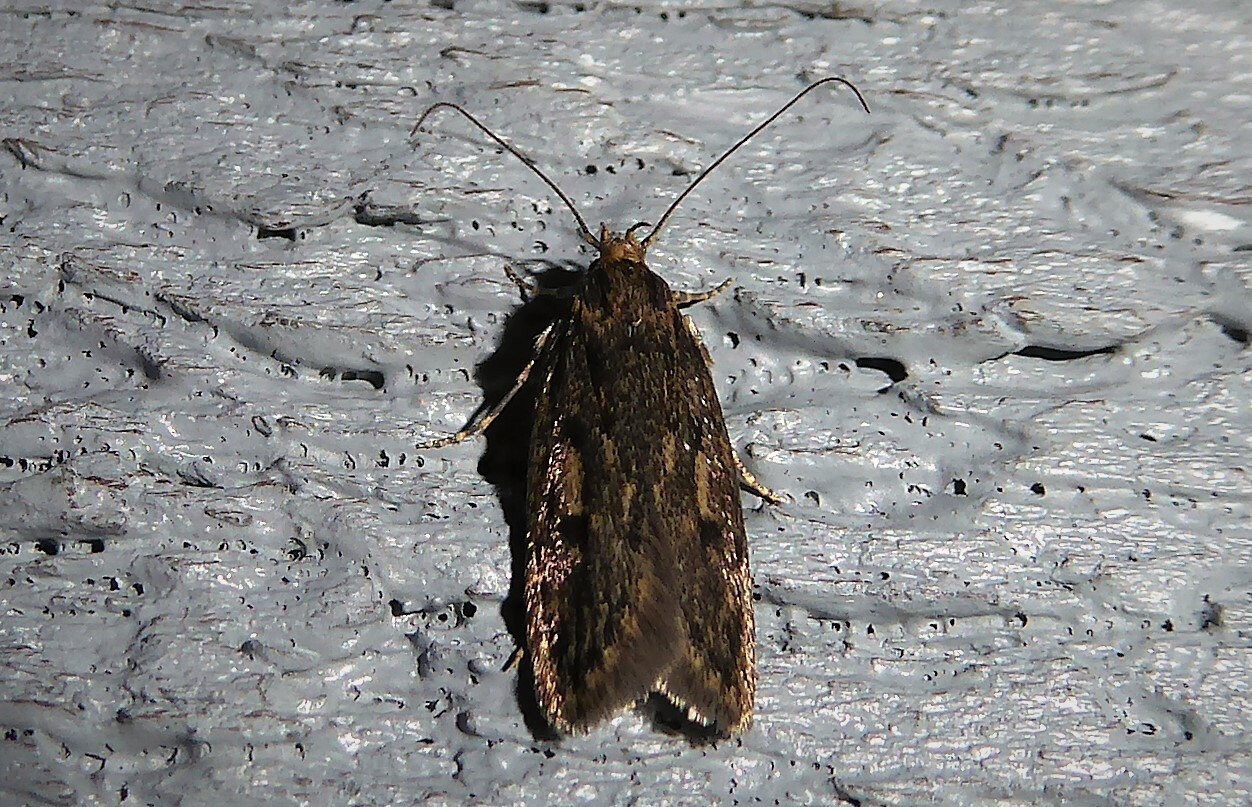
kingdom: Animalia
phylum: Arthropoda
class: Insecta
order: Lepidoptera
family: Oecophoridae
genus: Hofmannophila
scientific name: Hofmannophila pseudospretella
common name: Brown house moth
